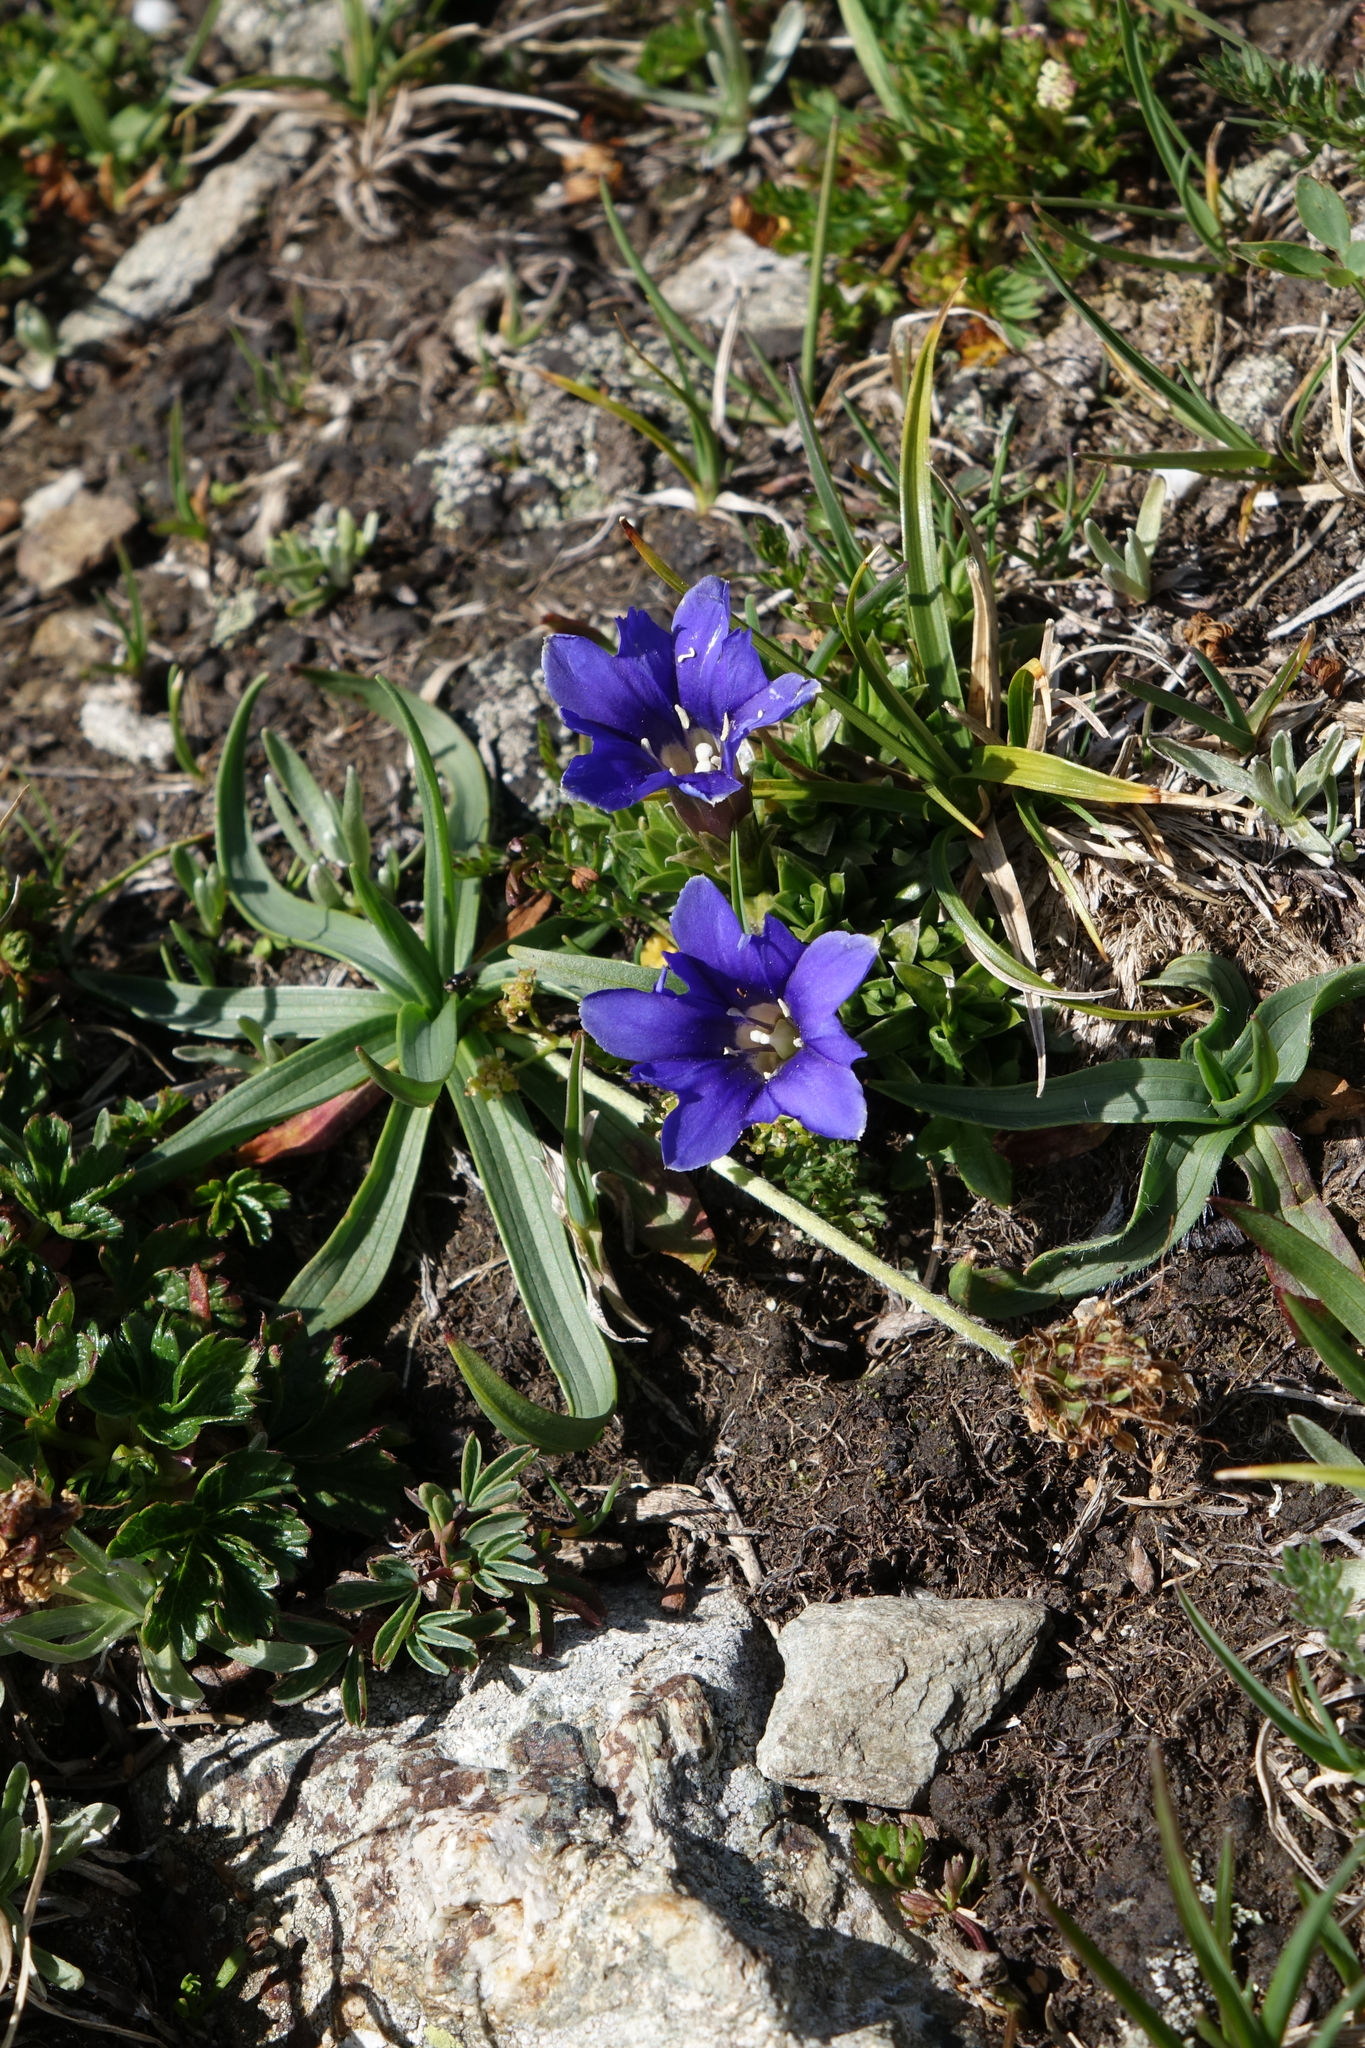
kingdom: Plantae
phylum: Tracheophyta
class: Magnoliopsida
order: Gentianales
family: Gentianaceae
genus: Gentiana
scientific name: Gentiana dshimilensis
